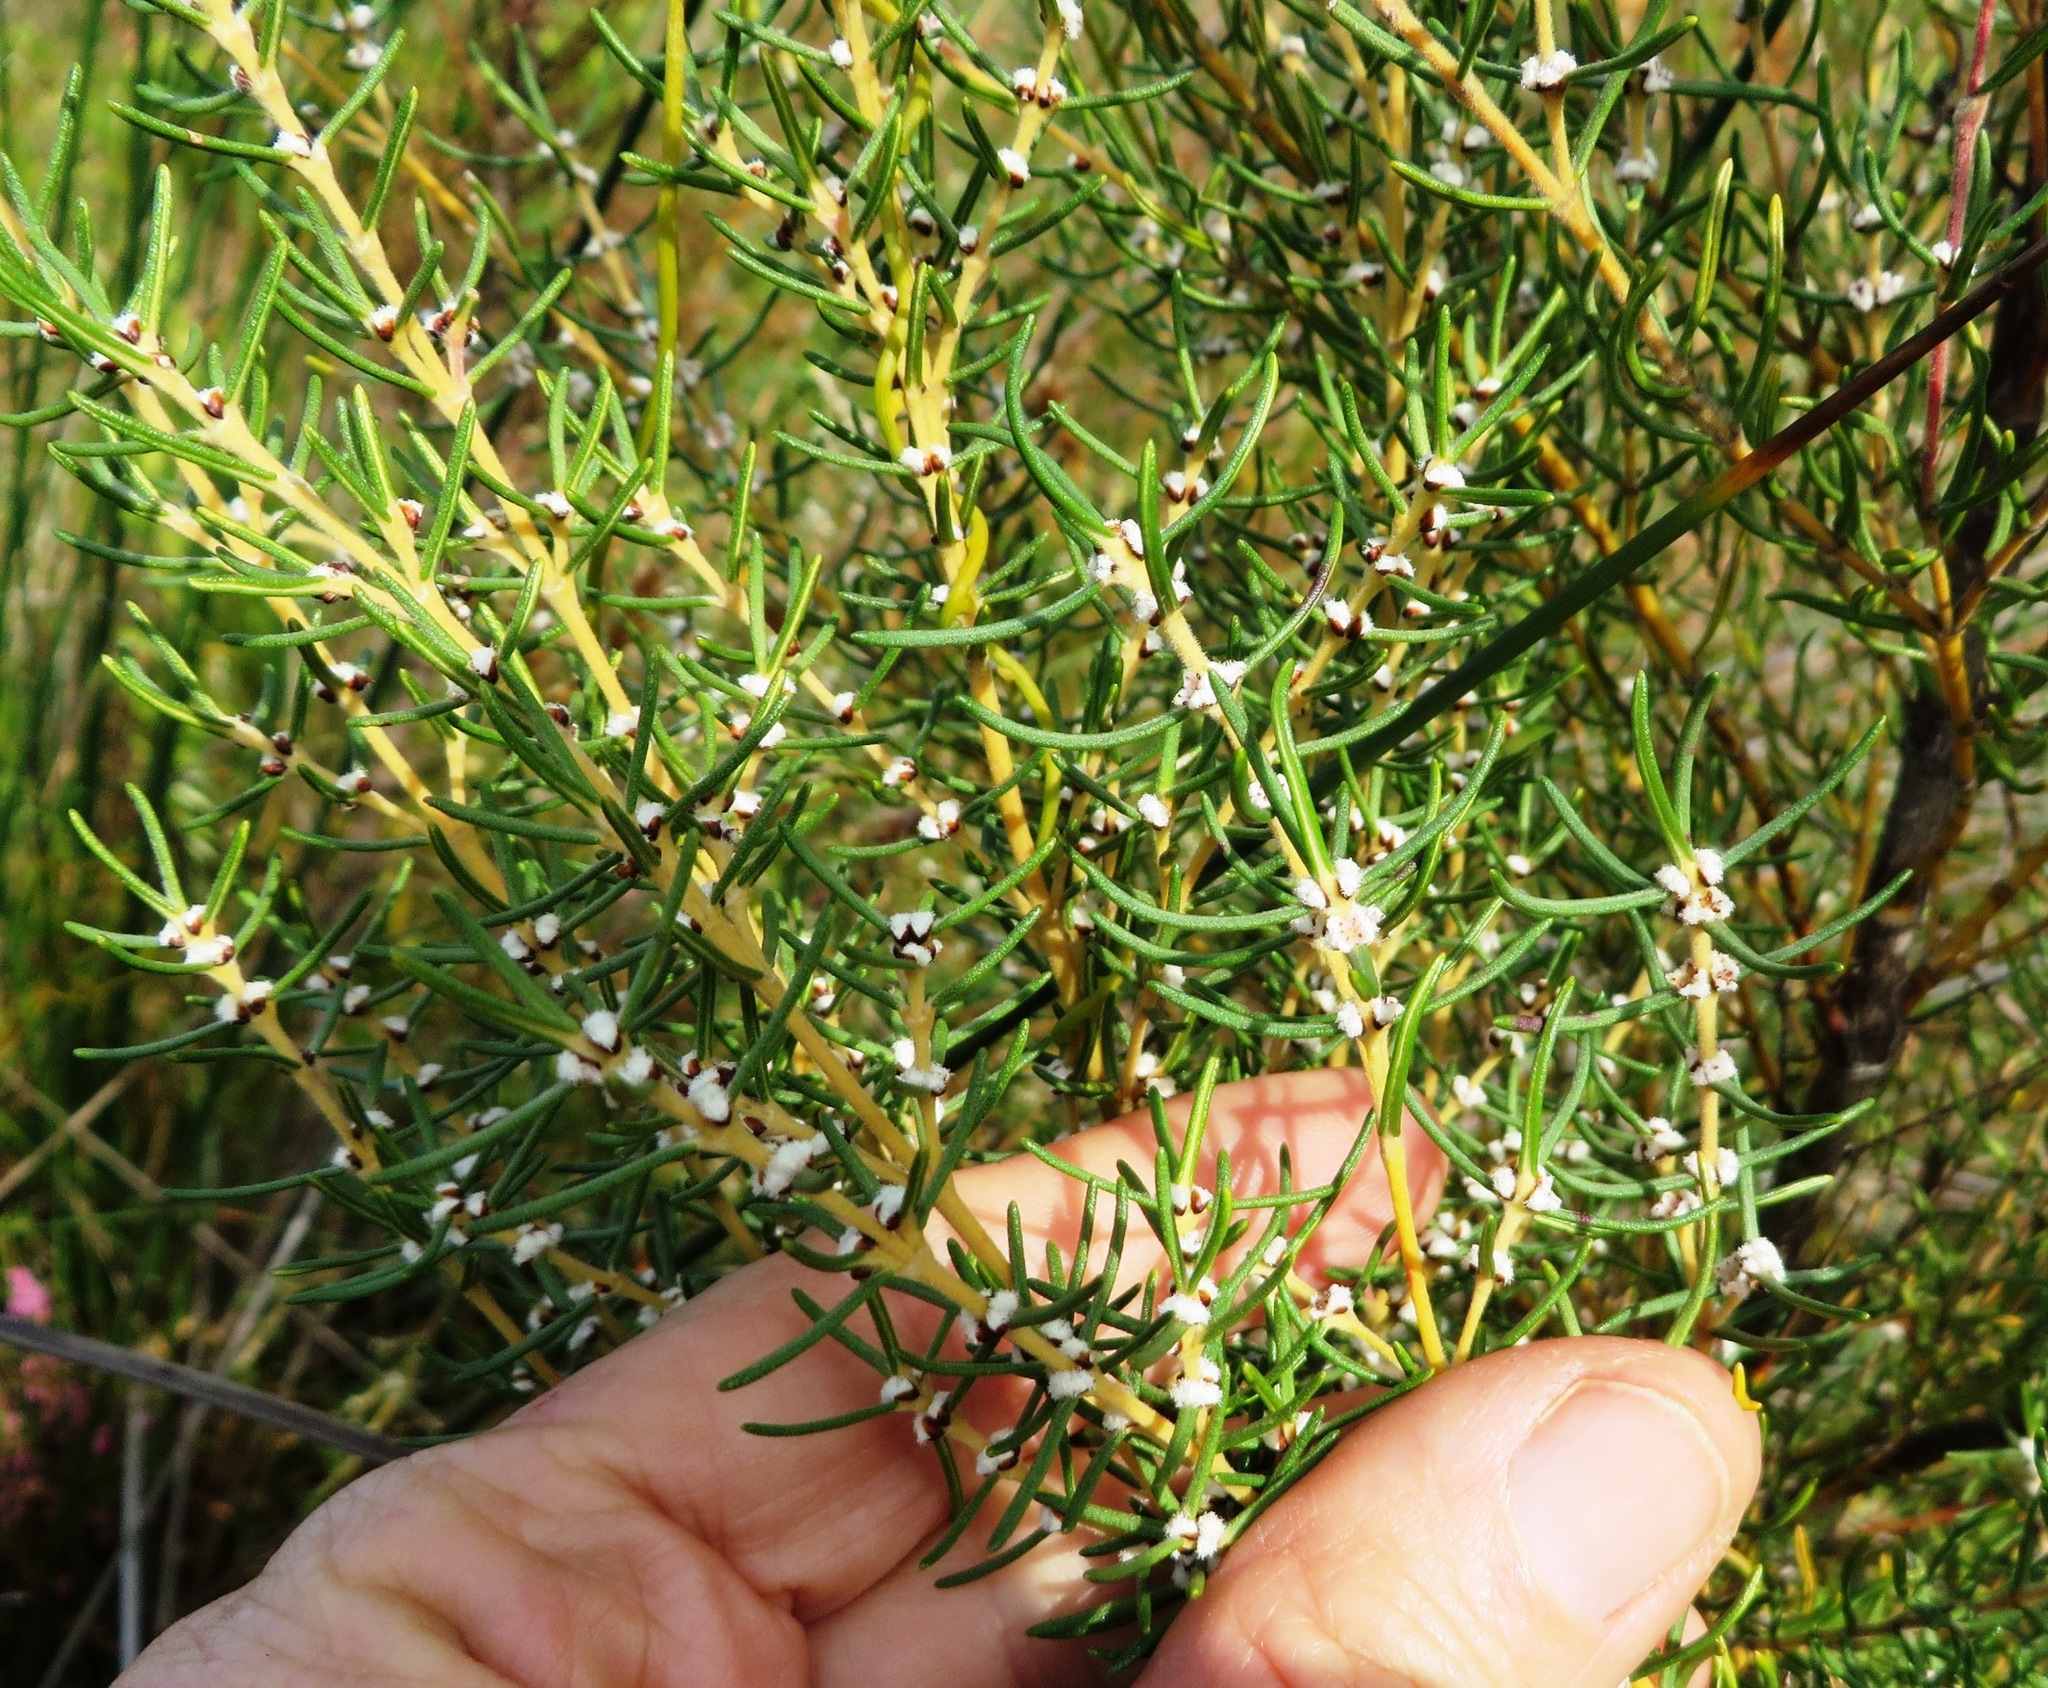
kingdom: Plantae
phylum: Tracheophyta
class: Magnoliopsida
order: Cornales
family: Grubbiaceae
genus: Grubbia
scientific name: Grubbia rosmarinifolia
